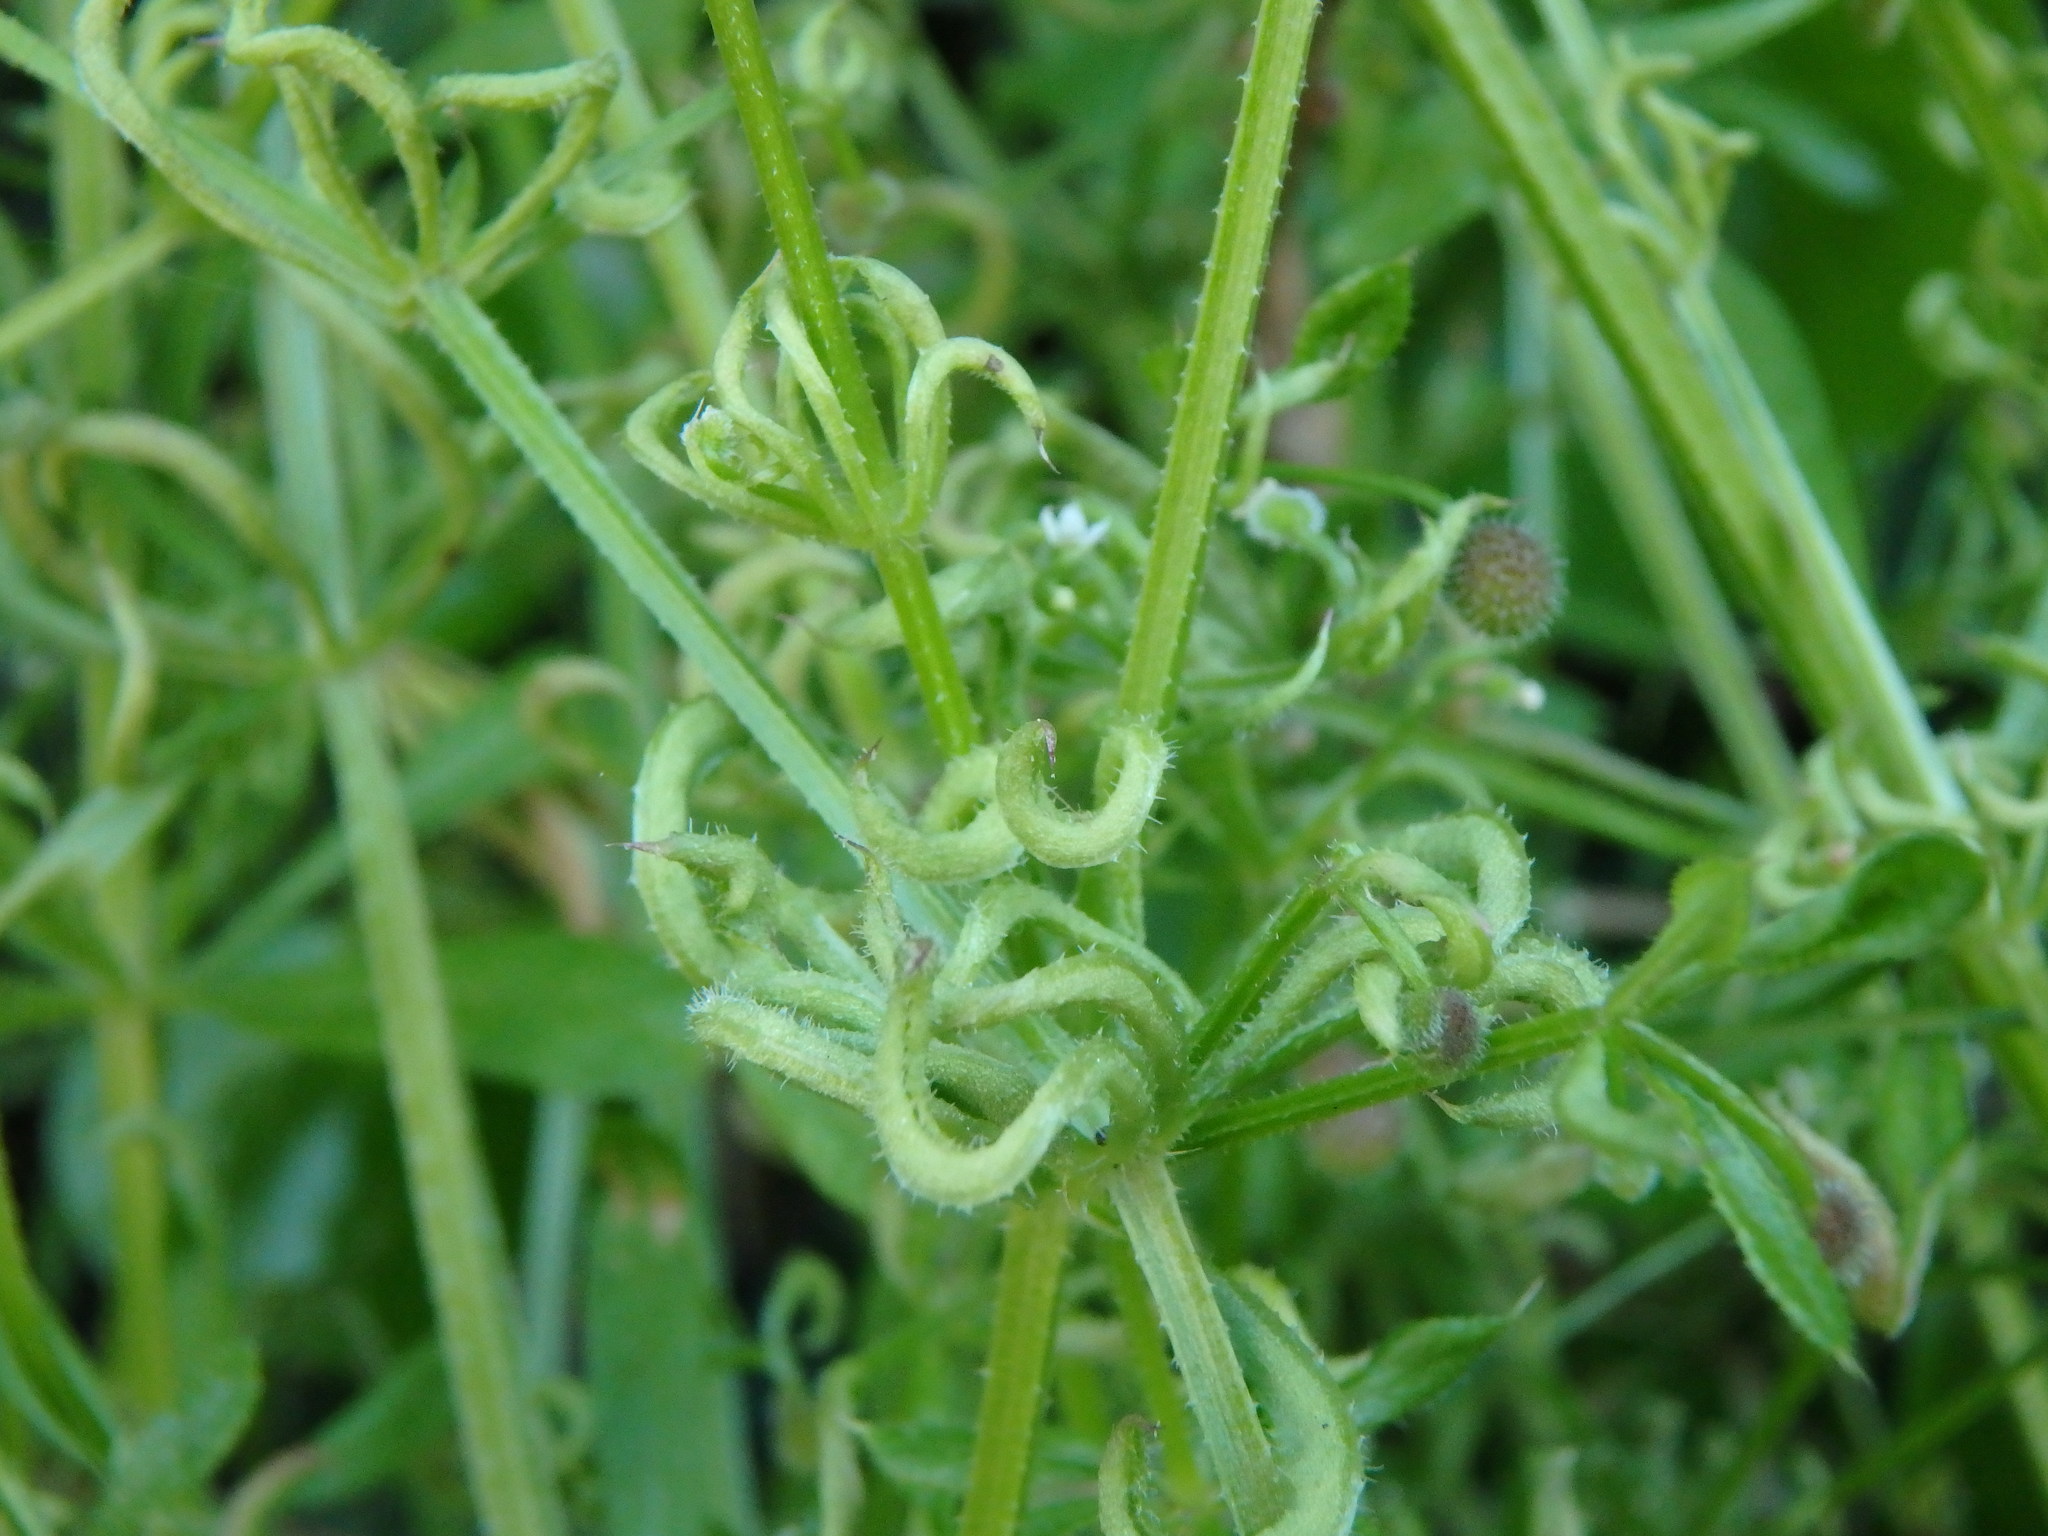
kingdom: Animalia
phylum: Arthropoda
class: Arachnida
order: Trombidiformes
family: Eriophyidae
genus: Cecidophyes
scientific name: Cecidophyes rouhollahi
